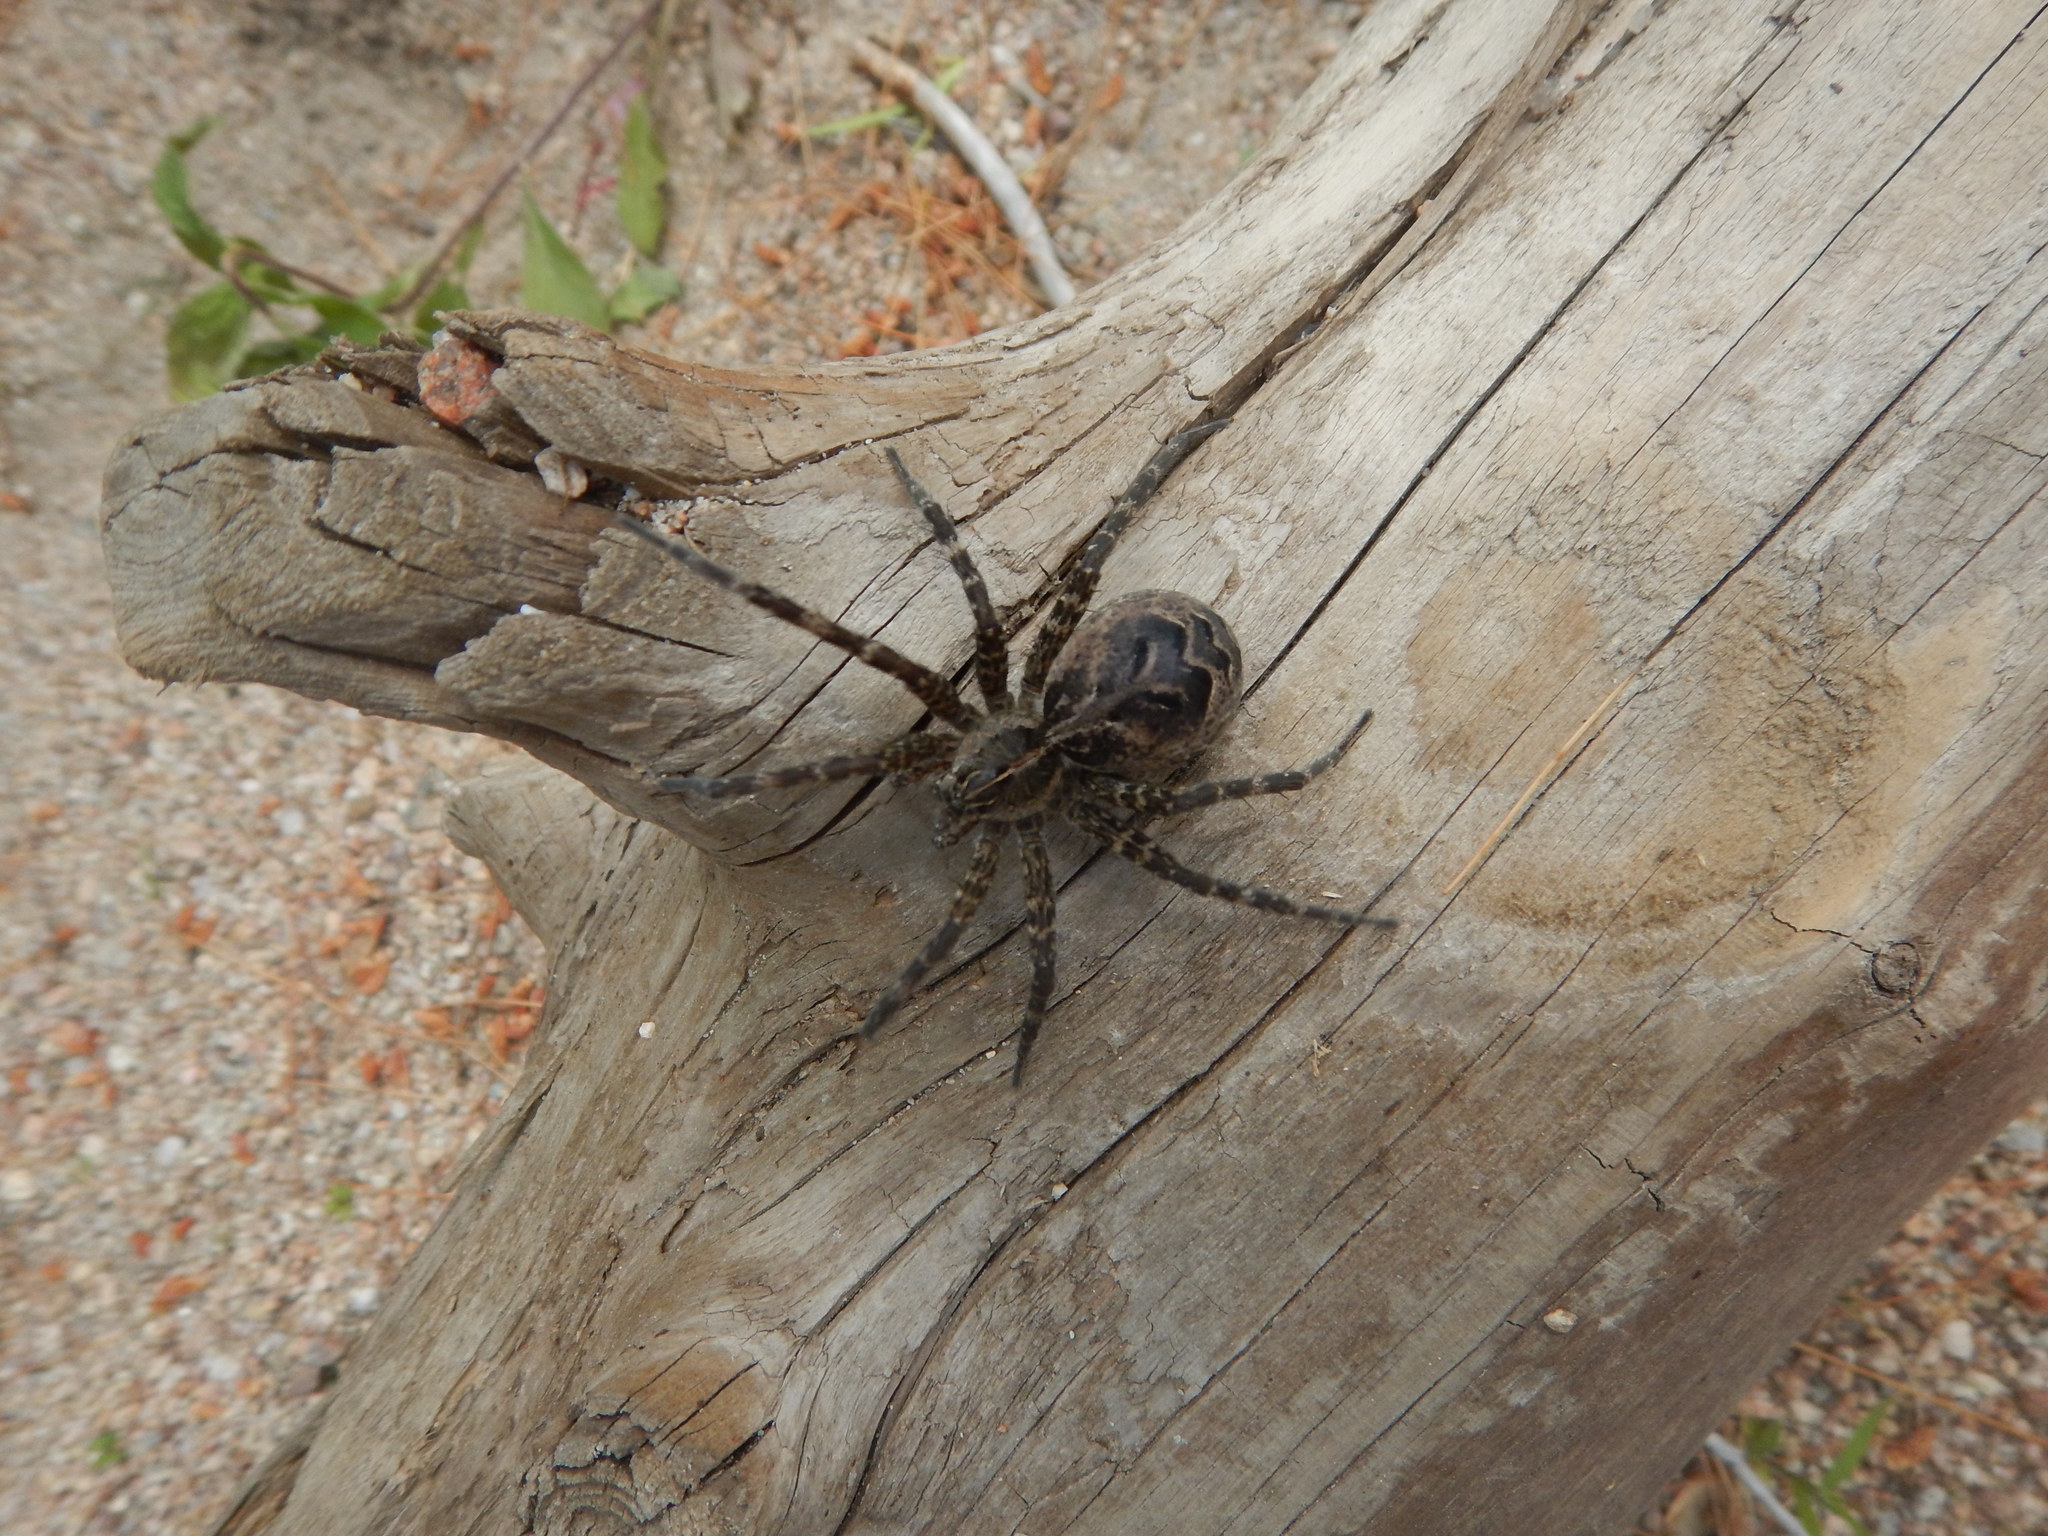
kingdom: Animalia
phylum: Arthropoda
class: Arachnida
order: Araneae
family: Pisauridae
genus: Dolomedes
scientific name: Dolomedes scriptus
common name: Striped fishing spider
